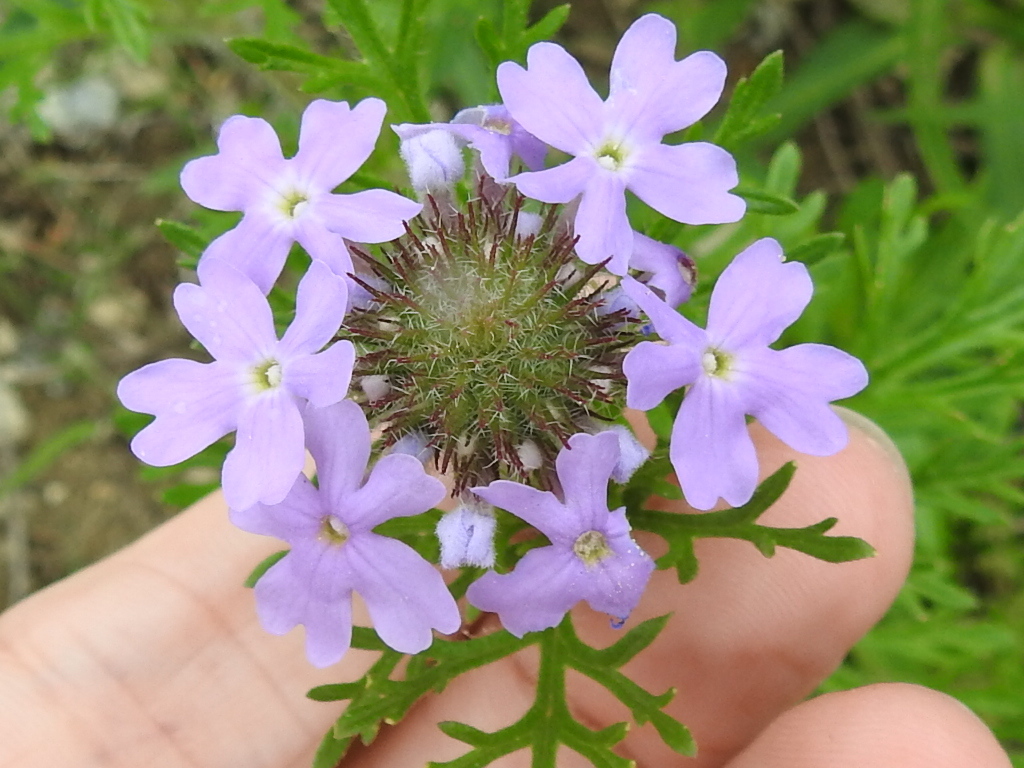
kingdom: Plantae
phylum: Tracheophyta
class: Magnoliopsida
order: Lamiales
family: Verbenaceae
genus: Verbena
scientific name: Verbena bipinnatifida
